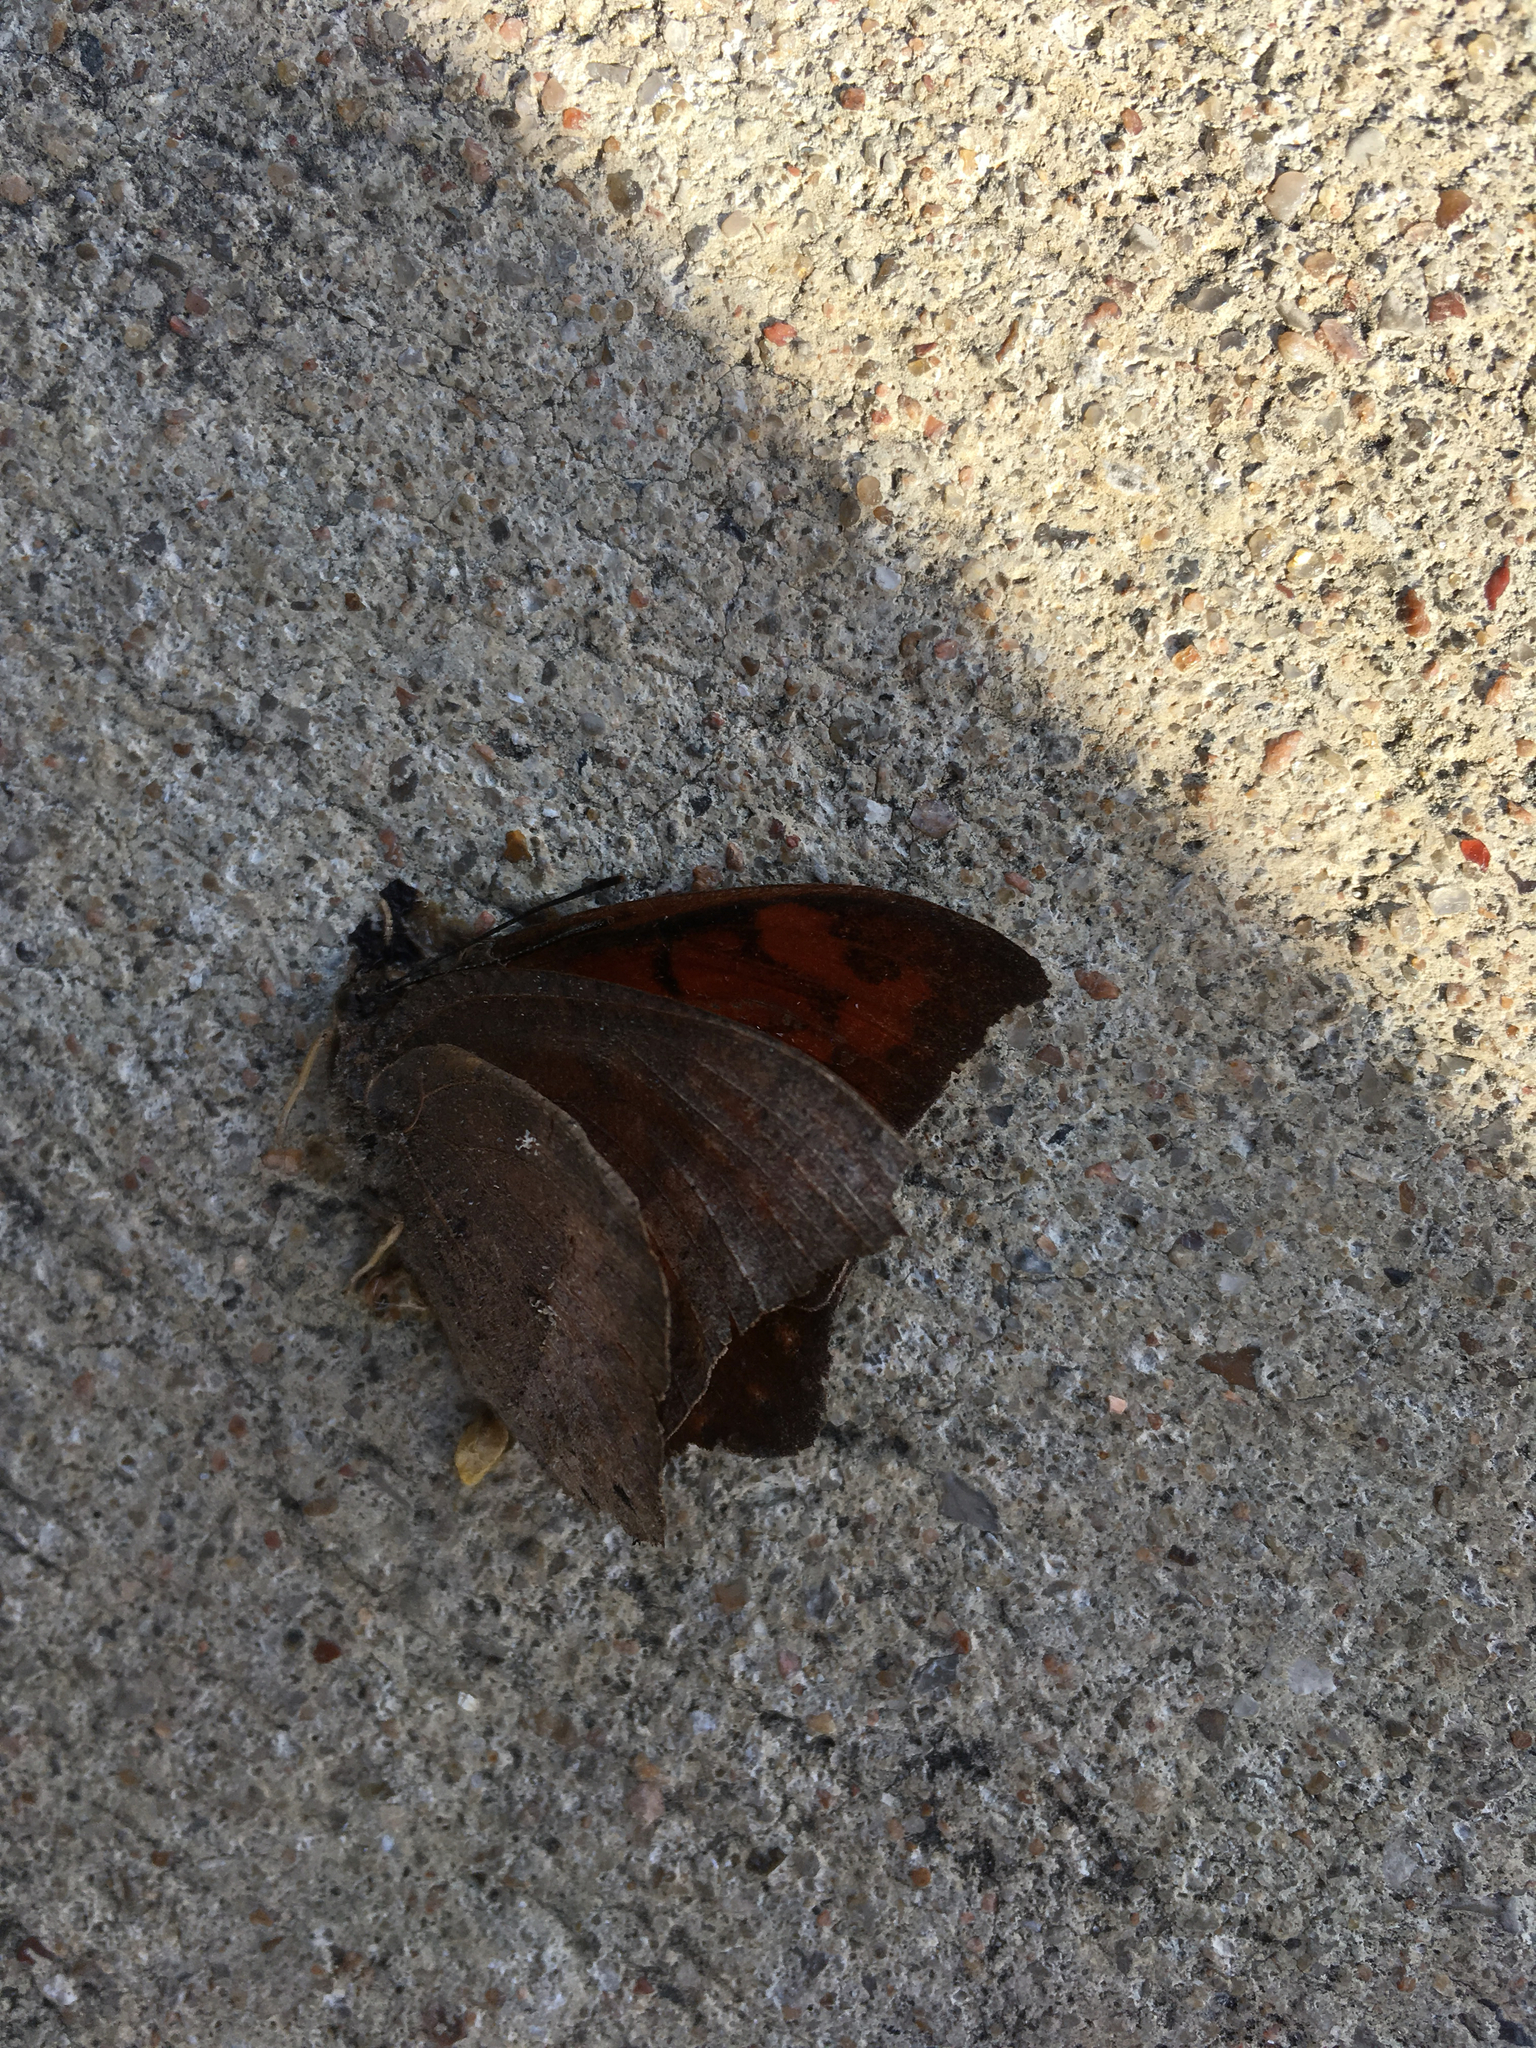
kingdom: Animalia
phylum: Arthropoda
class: Insecta
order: Lepidoptera
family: Nymphalidae
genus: Anaea
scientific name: Anaea andria
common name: Goatweed leafwing
